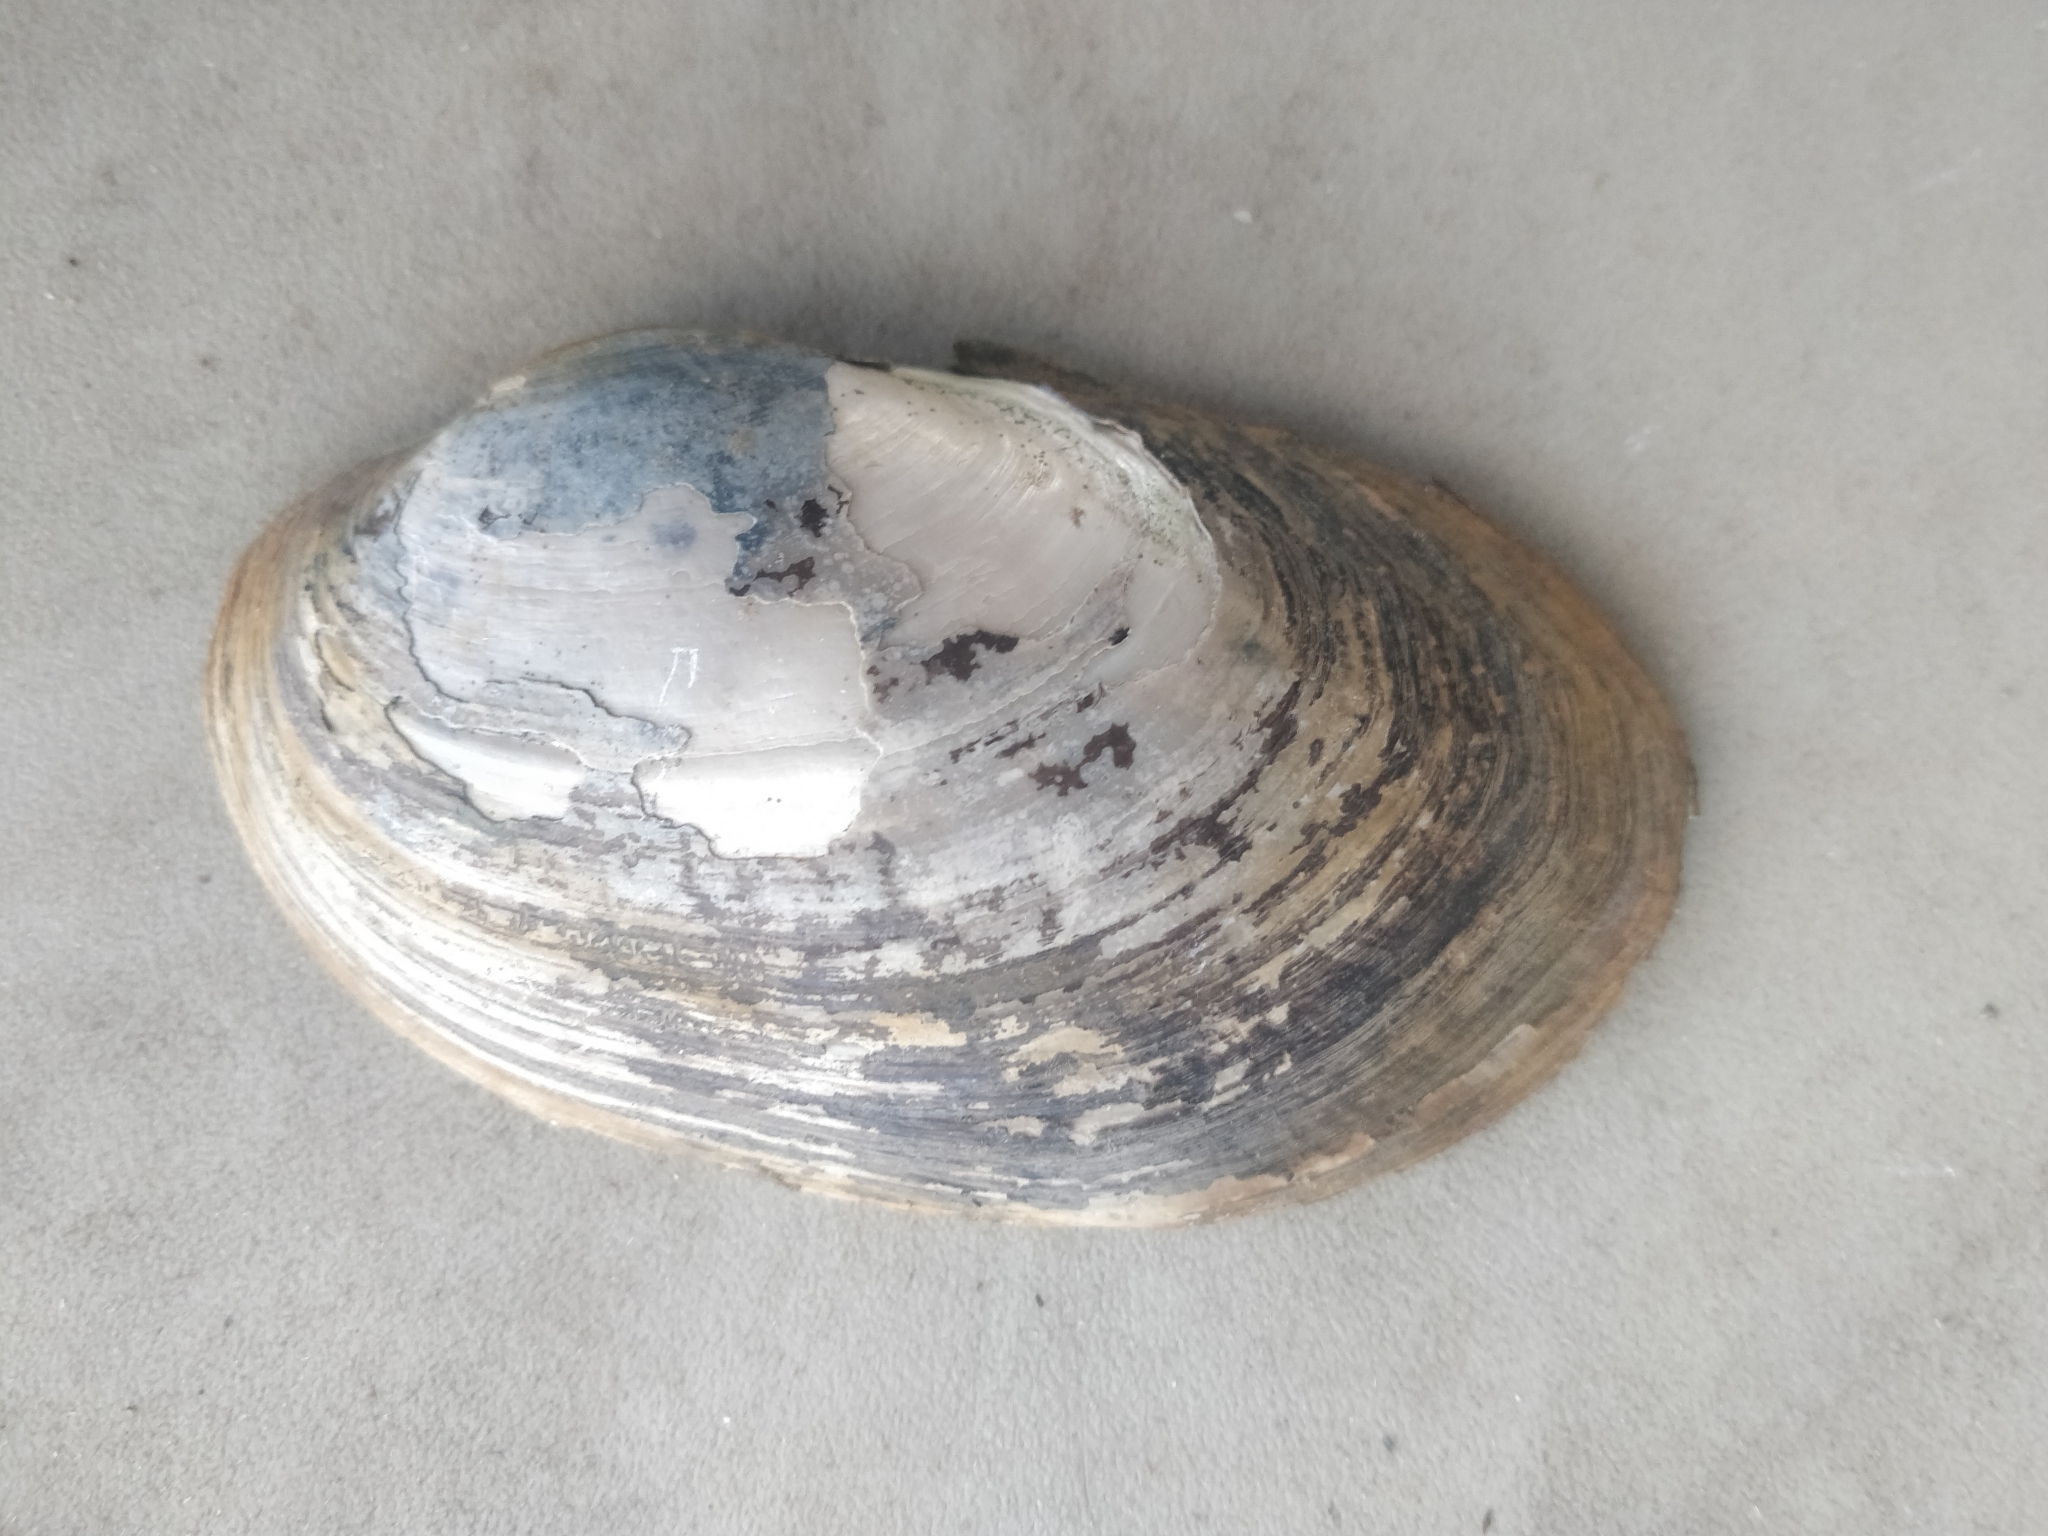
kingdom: Animalia
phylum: Mollusca
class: Bivalvia
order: Unionida
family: Unionidae
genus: Lampsilis
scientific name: Lampsilis siliquoidea
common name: Fatmucket
